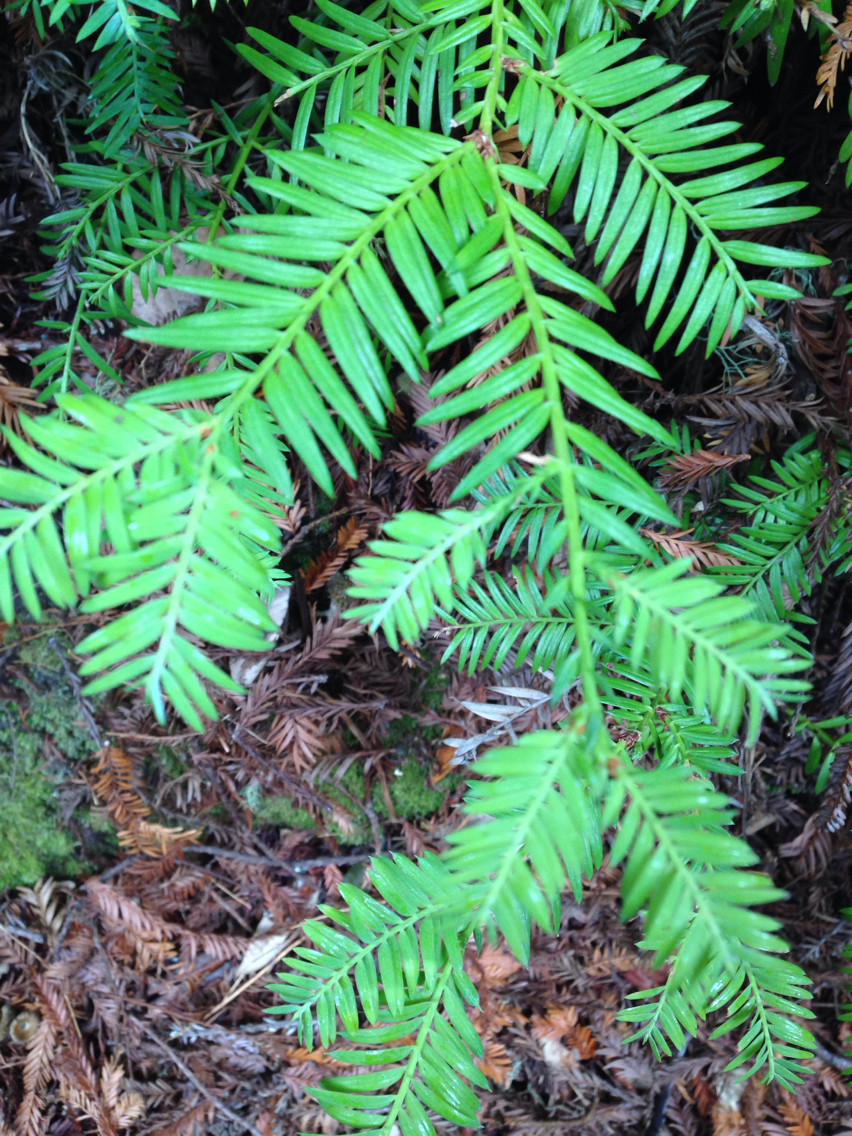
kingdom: Plantae
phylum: Tracheophyta
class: Pinopsida
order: Pinales
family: Cupressaceae
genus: Sequoia
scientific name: Sequoia sempervirens
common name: Coast redwood
